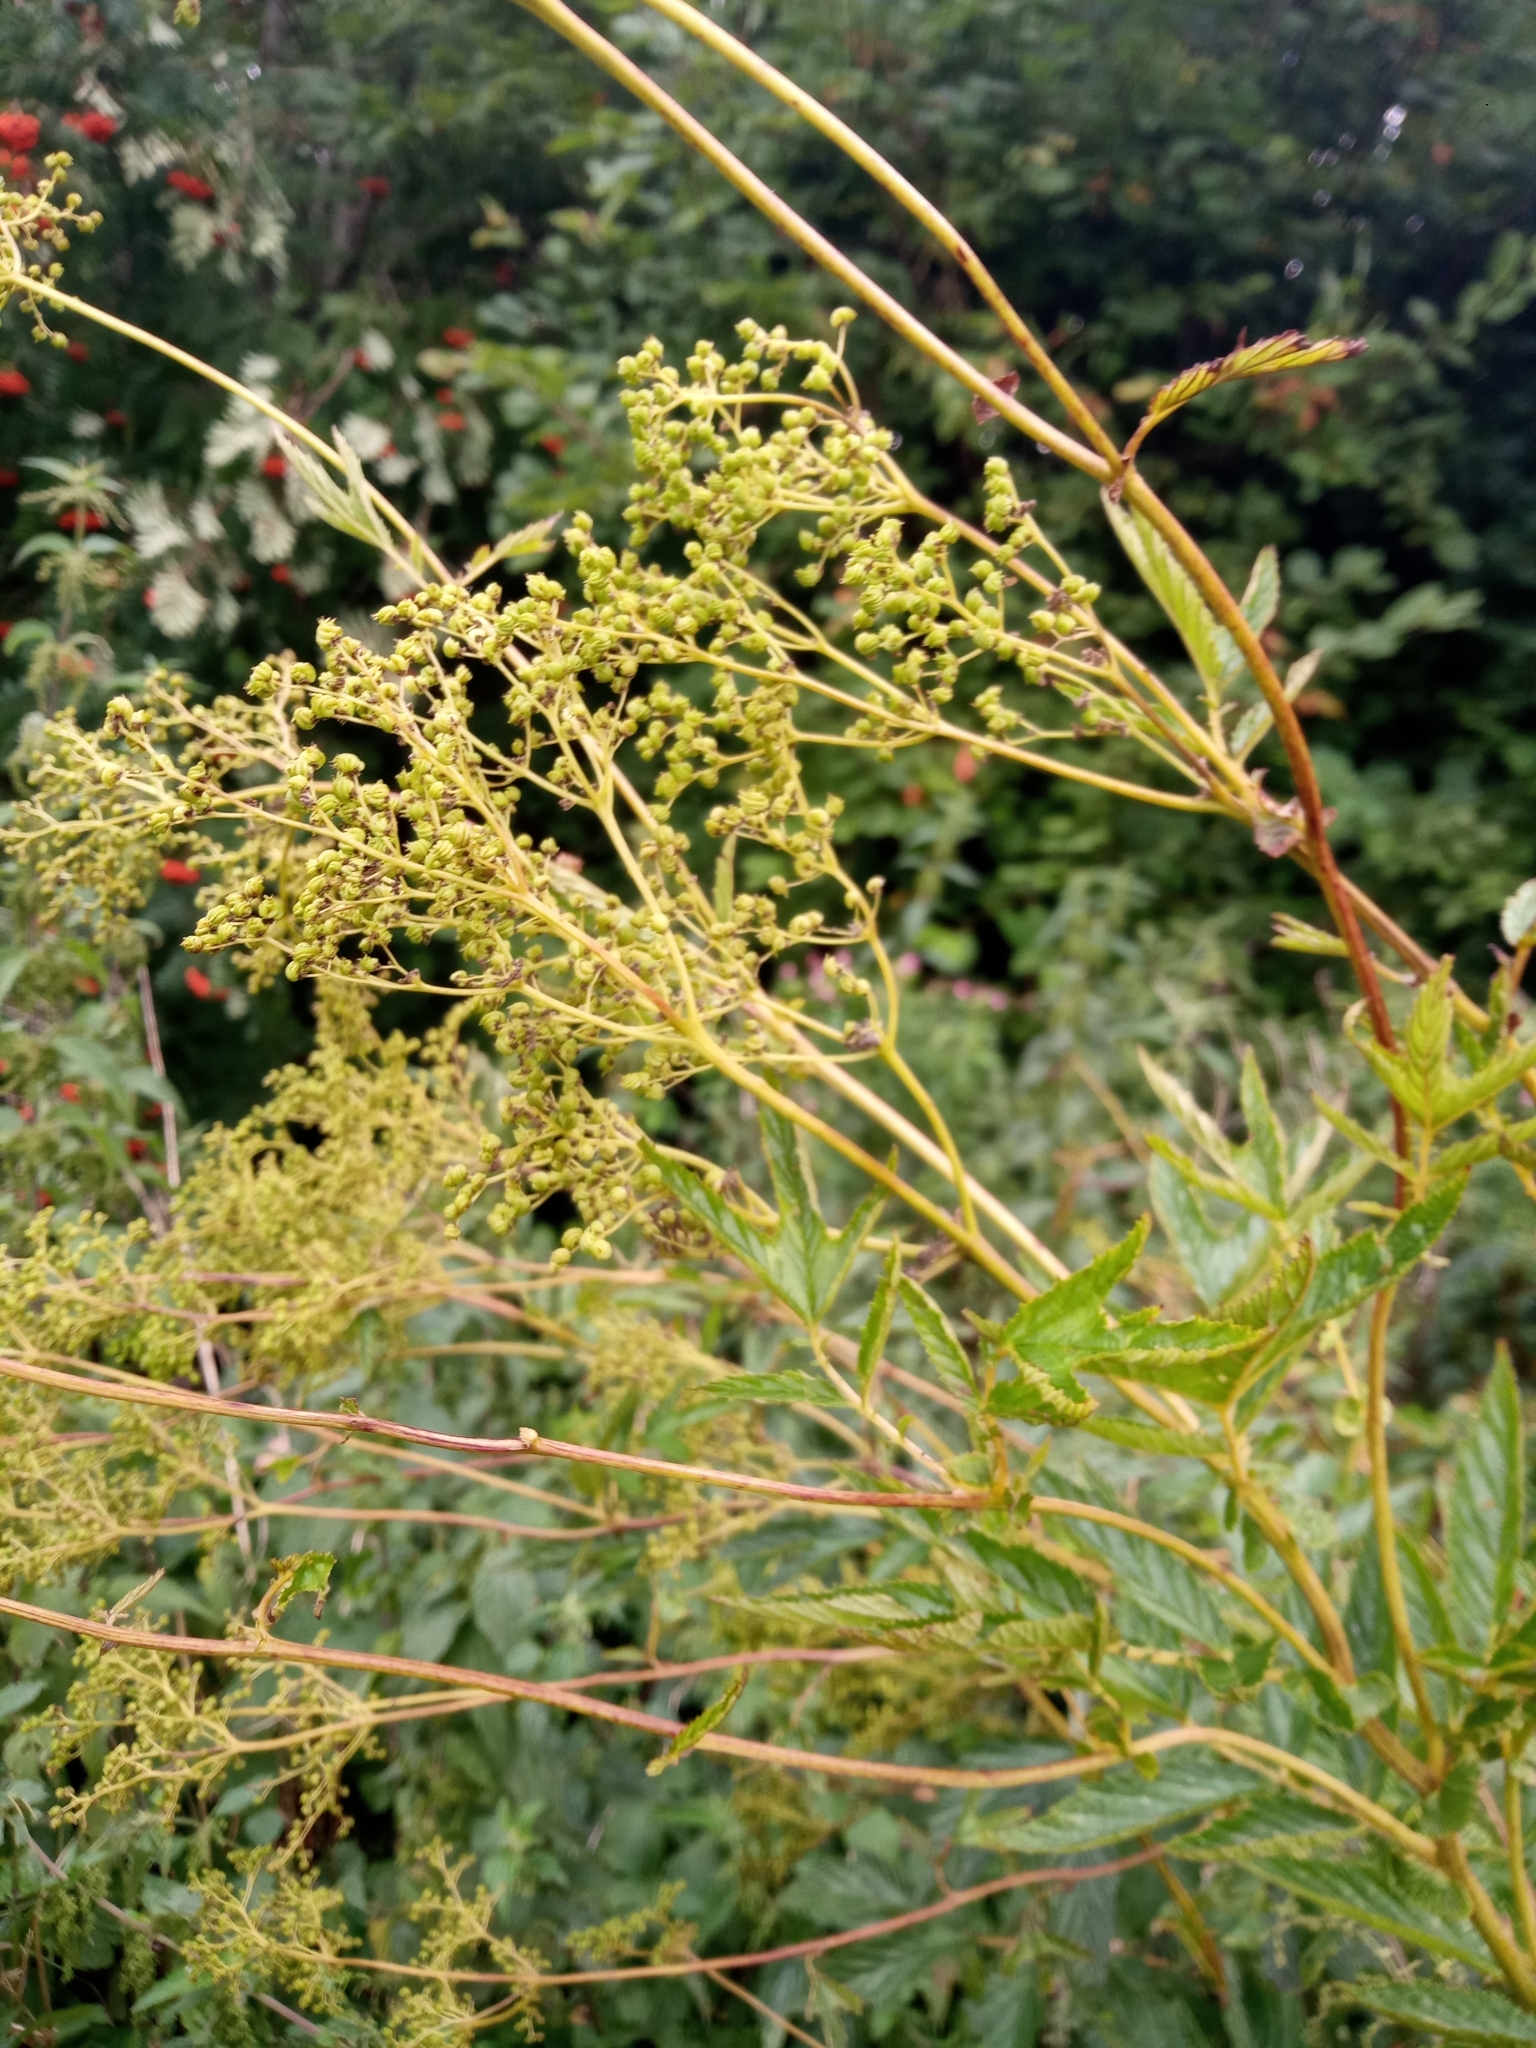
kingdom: Plantae
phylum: Tracheophyta
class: Magnoliopsida
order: Rosales
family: Rosaceae
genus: Filipendula
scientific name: Filipendula ulmaria
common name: Meadowsweet
